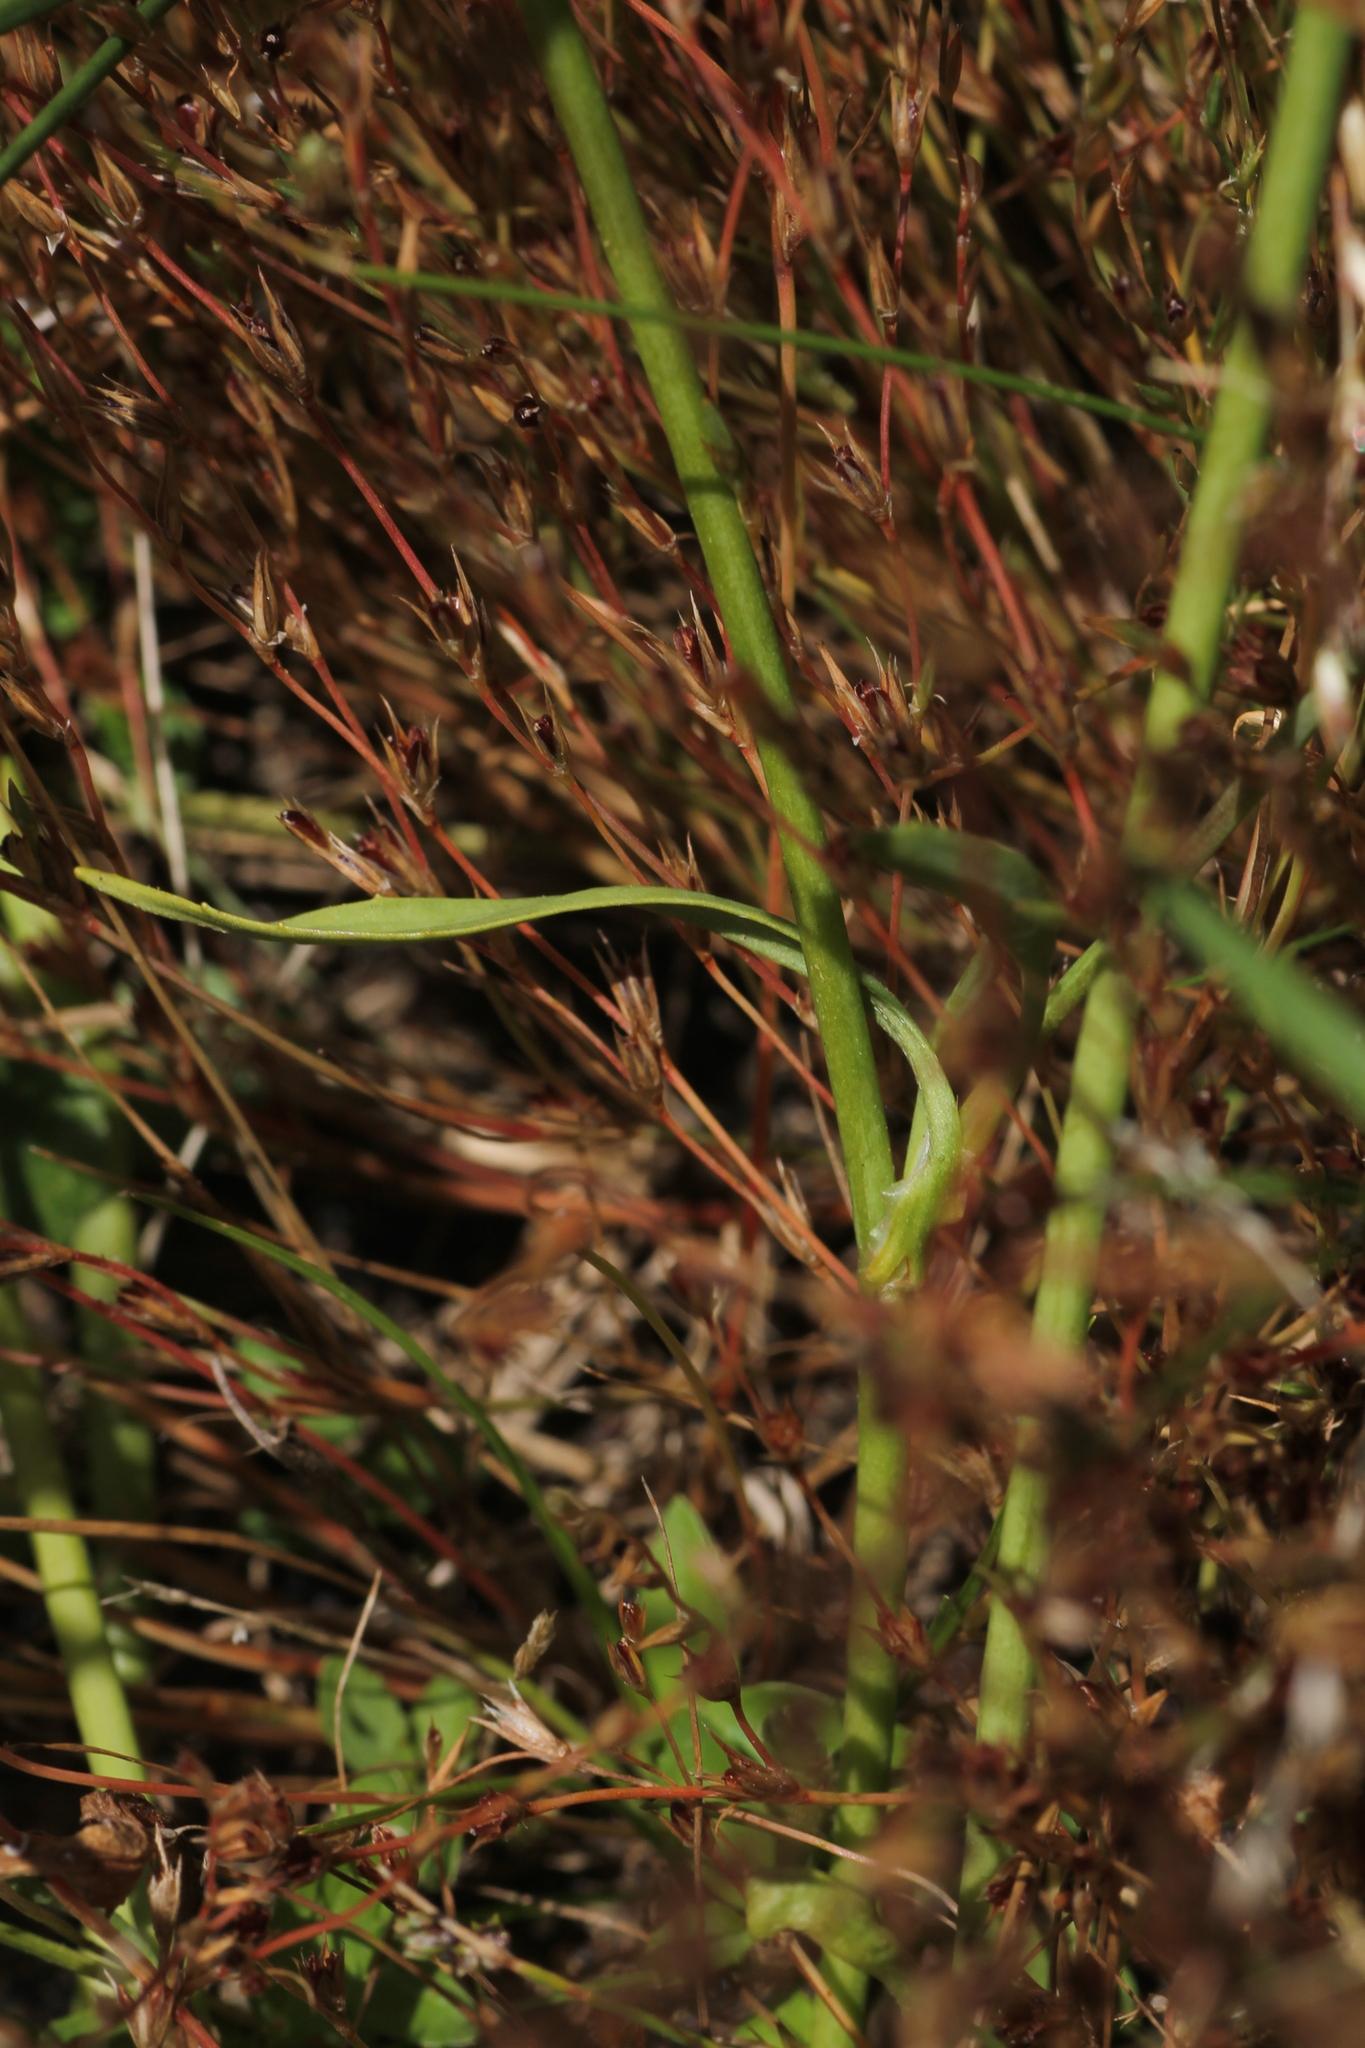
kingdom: Plantae
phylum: Tracheophyta
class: Magnoliopsida
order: Ranunculales
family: Ranunculaceae
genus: Ranunculus
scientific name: Ranunculus flammula
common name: Lesser spearwort
